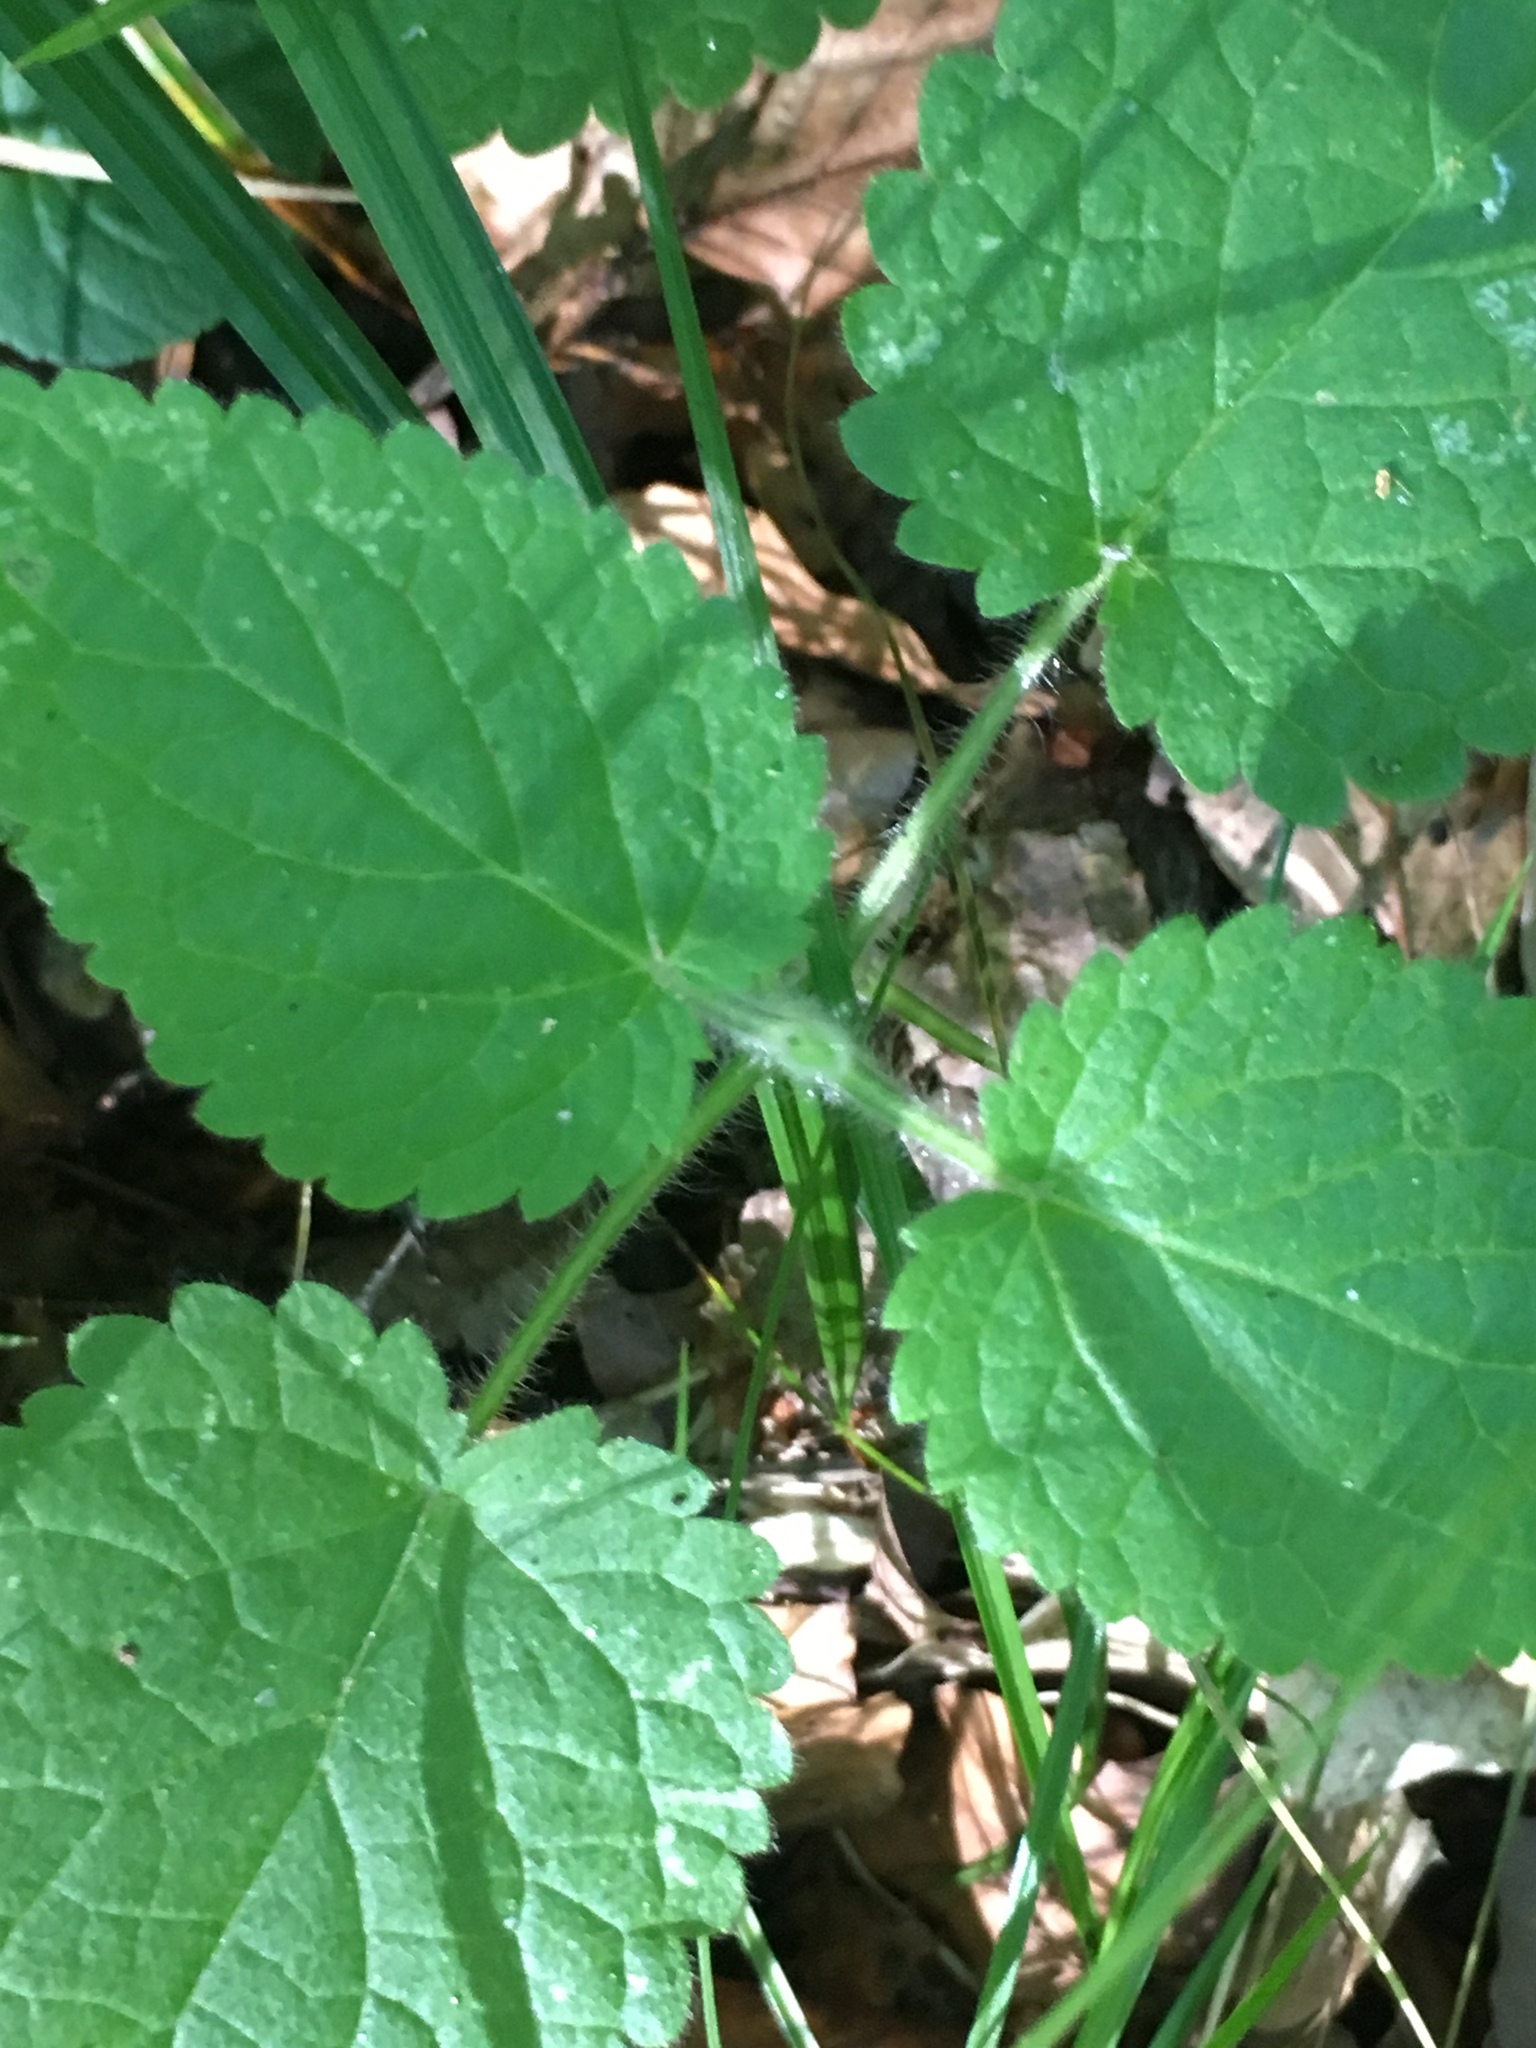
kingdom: Plantae
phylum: Tracheophyta
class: Magnoliopsida
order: Lamiales
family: Lamiaceae
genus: Stachys
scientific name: Stachys sylvatica
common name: Hedge woundwort
